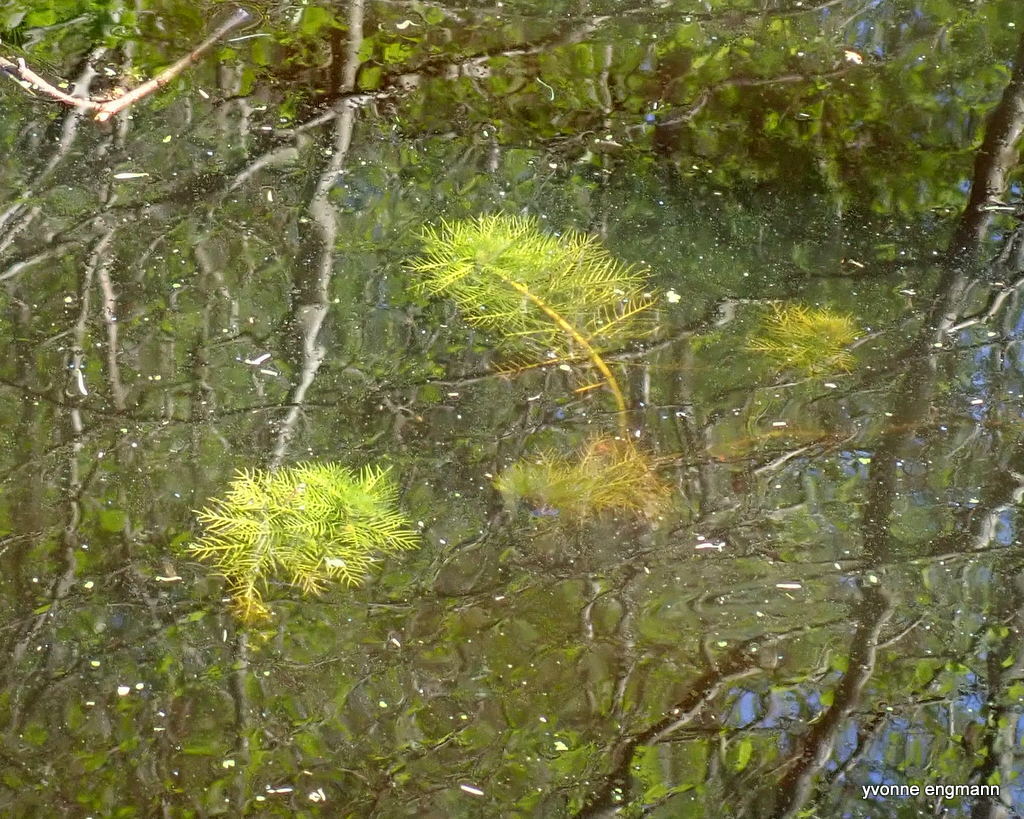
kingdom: Plantae
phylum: Tracheophyta
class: Magnoliopsida
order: Ericales
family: Primulaceae
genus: Hottonia
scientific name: Hottonia palustris
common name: Water-violet
